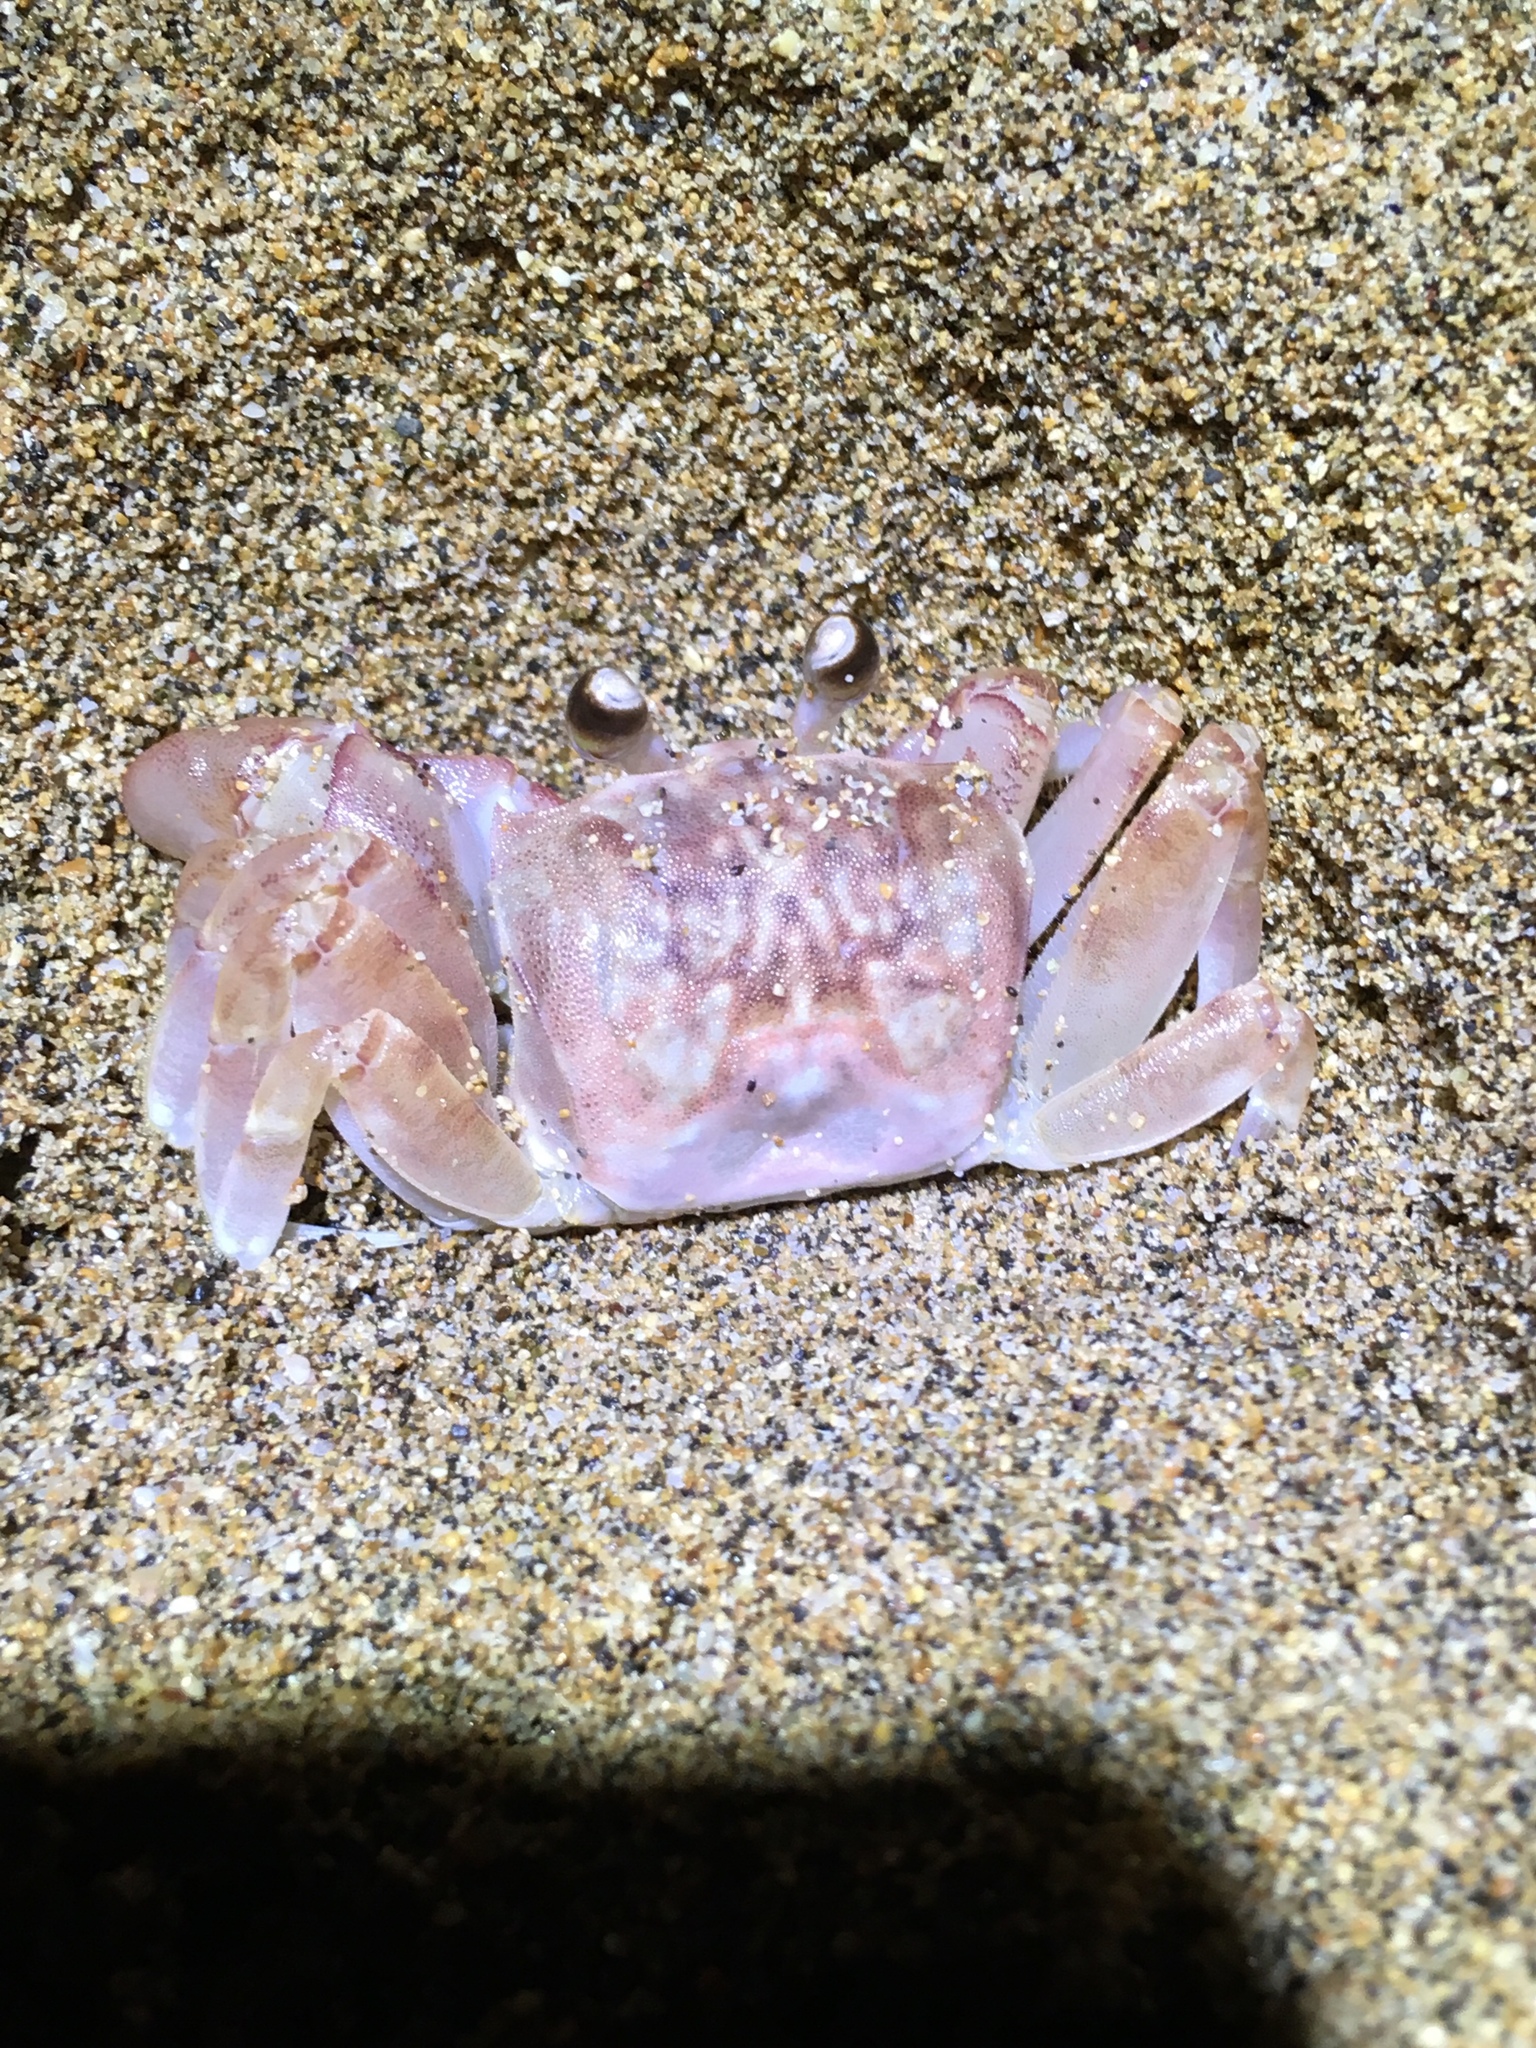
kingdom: Animalia
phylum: Arthropoda
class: Malacostraca
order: Decapoda
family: Ocypodidae
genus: Ocypode
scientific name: Ocypode pallidula
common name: Pallid ghost crab
